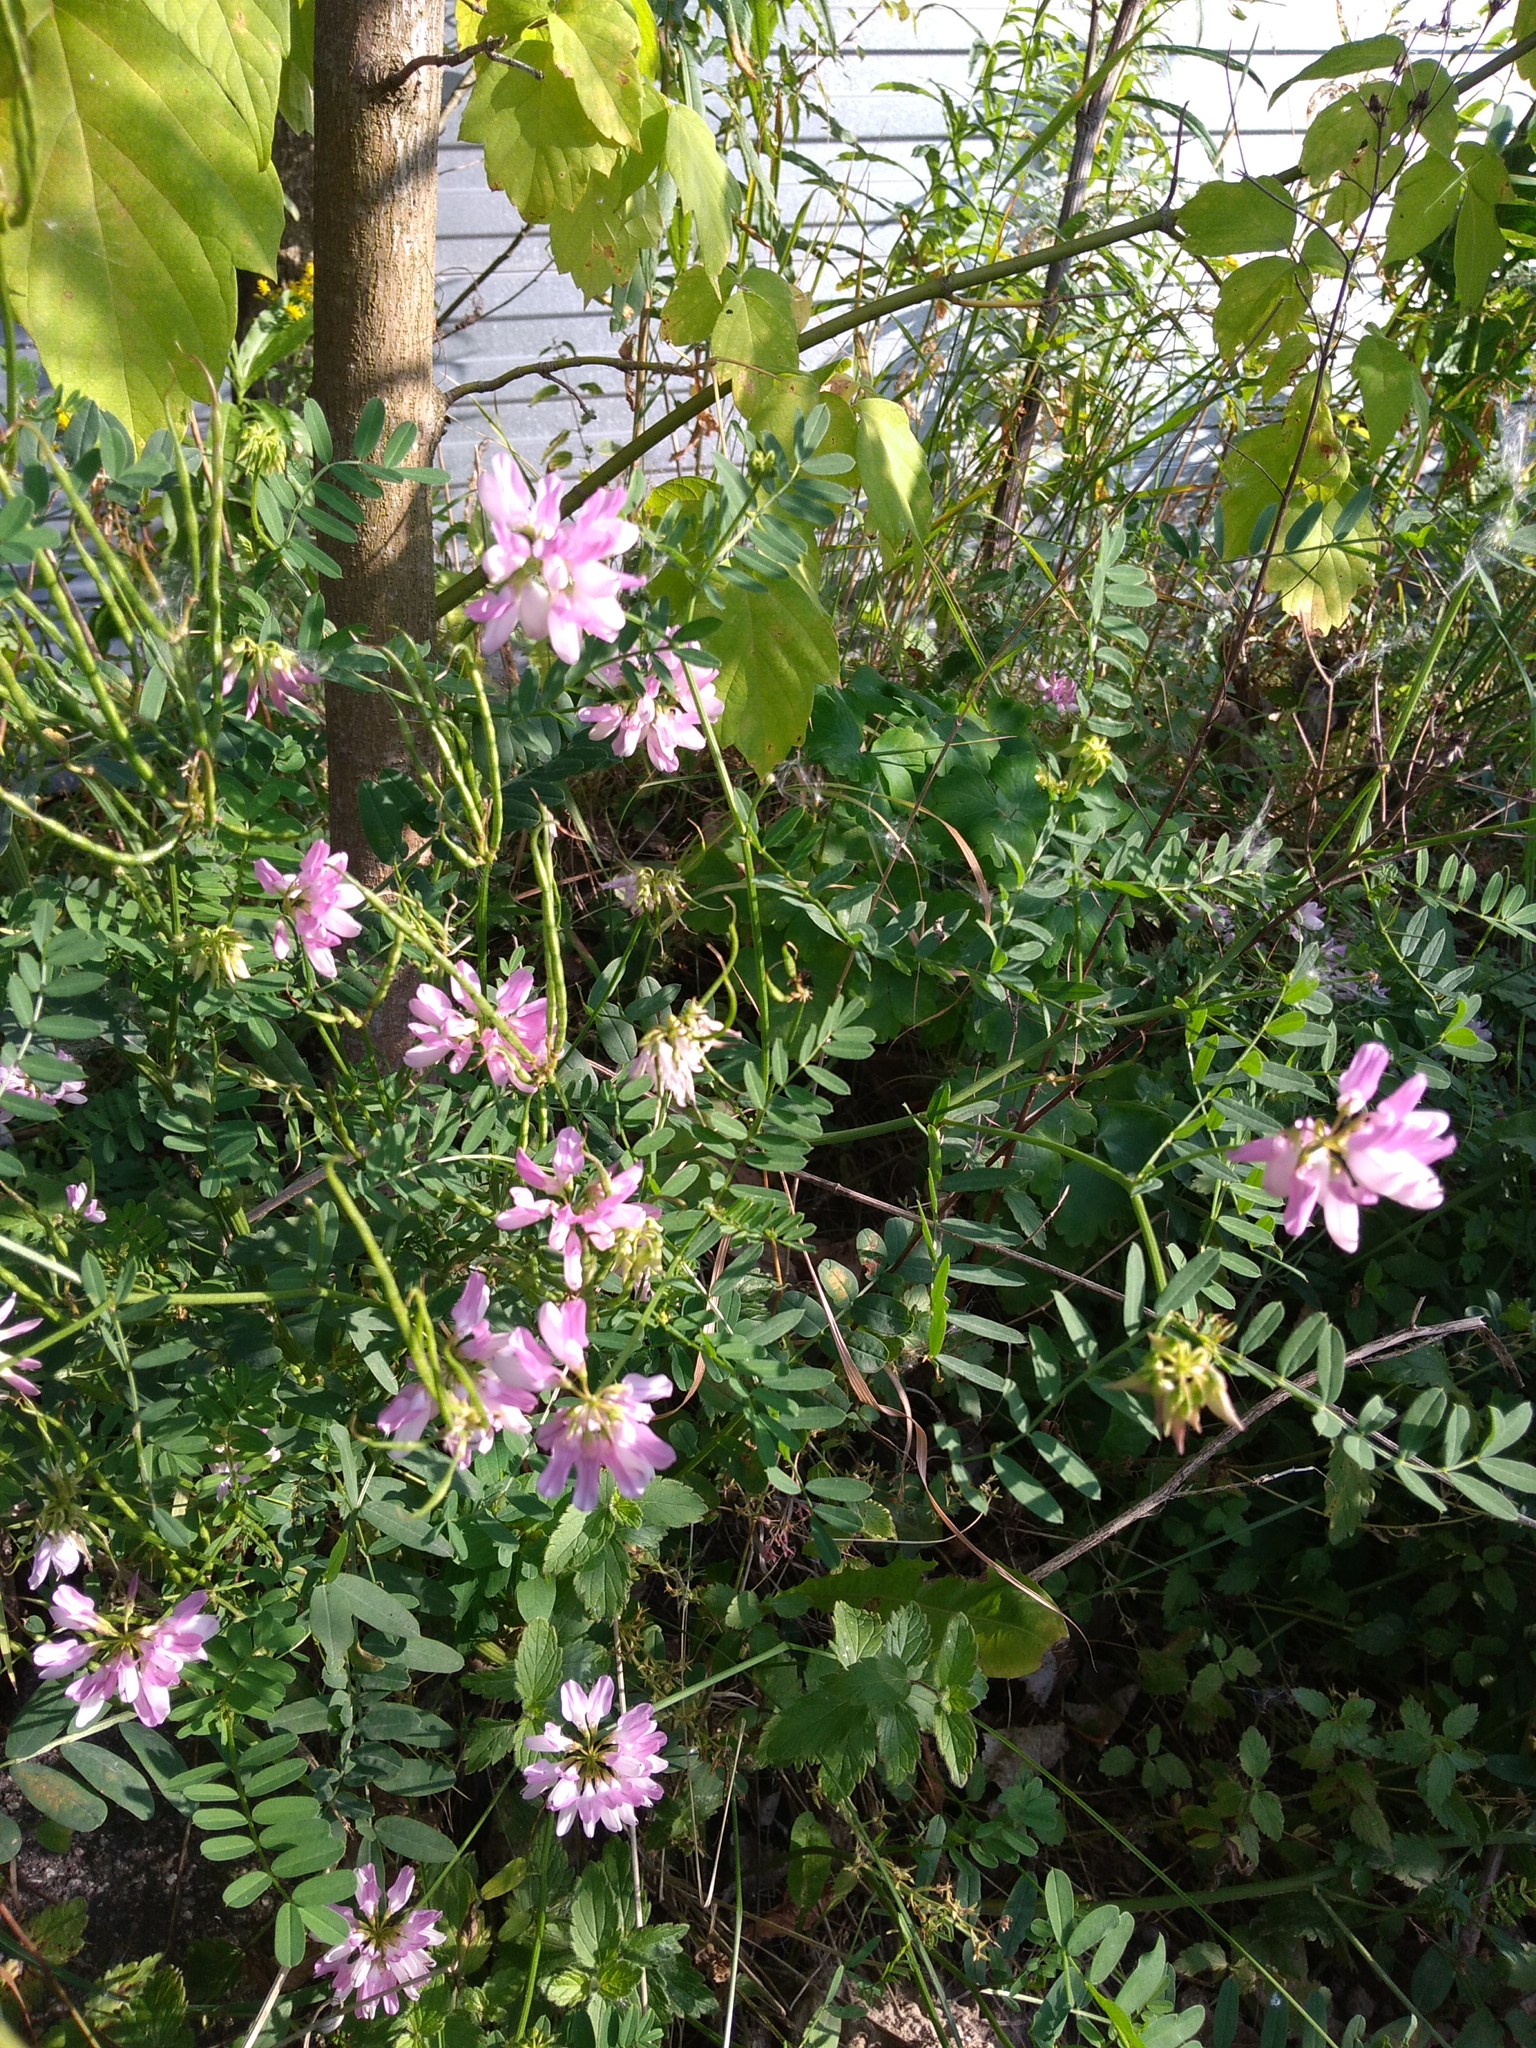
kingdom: Plantae
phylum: Tracheophyta
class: Magnoliopsida
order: Fabales
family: Fabaceae
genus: Coronilla
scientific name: Coronilla varia
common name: Crownvetch
